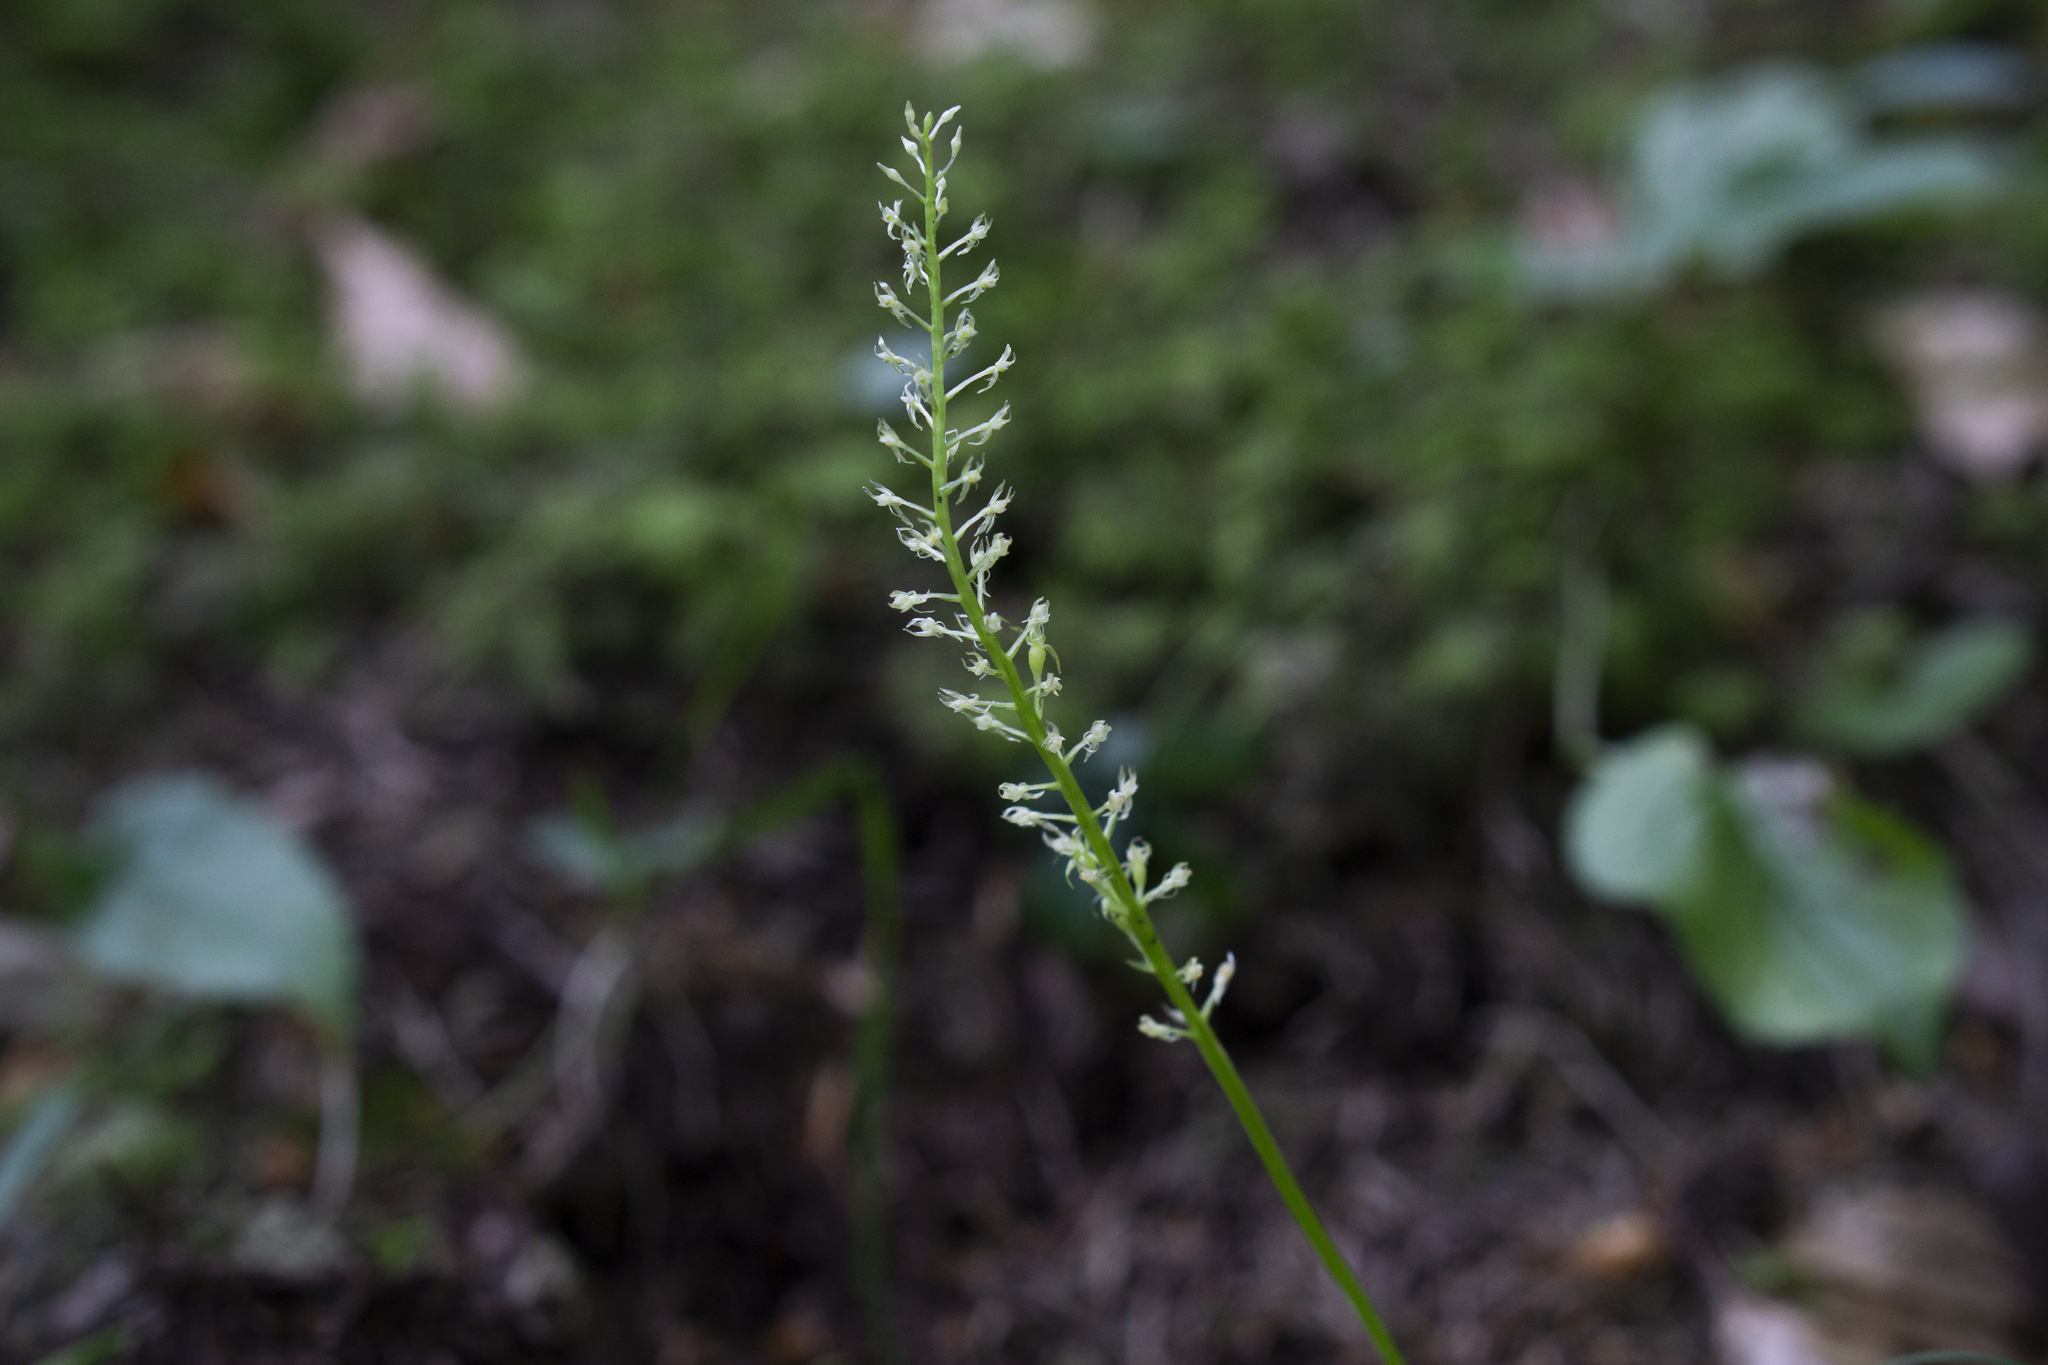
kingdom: Plantae
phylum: Tracheophyta
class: Liliopsida
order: Asparagales
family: Orchidaceae
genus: Malaxis
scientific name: Malaxis monophyllos
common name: White adder's-mouth
